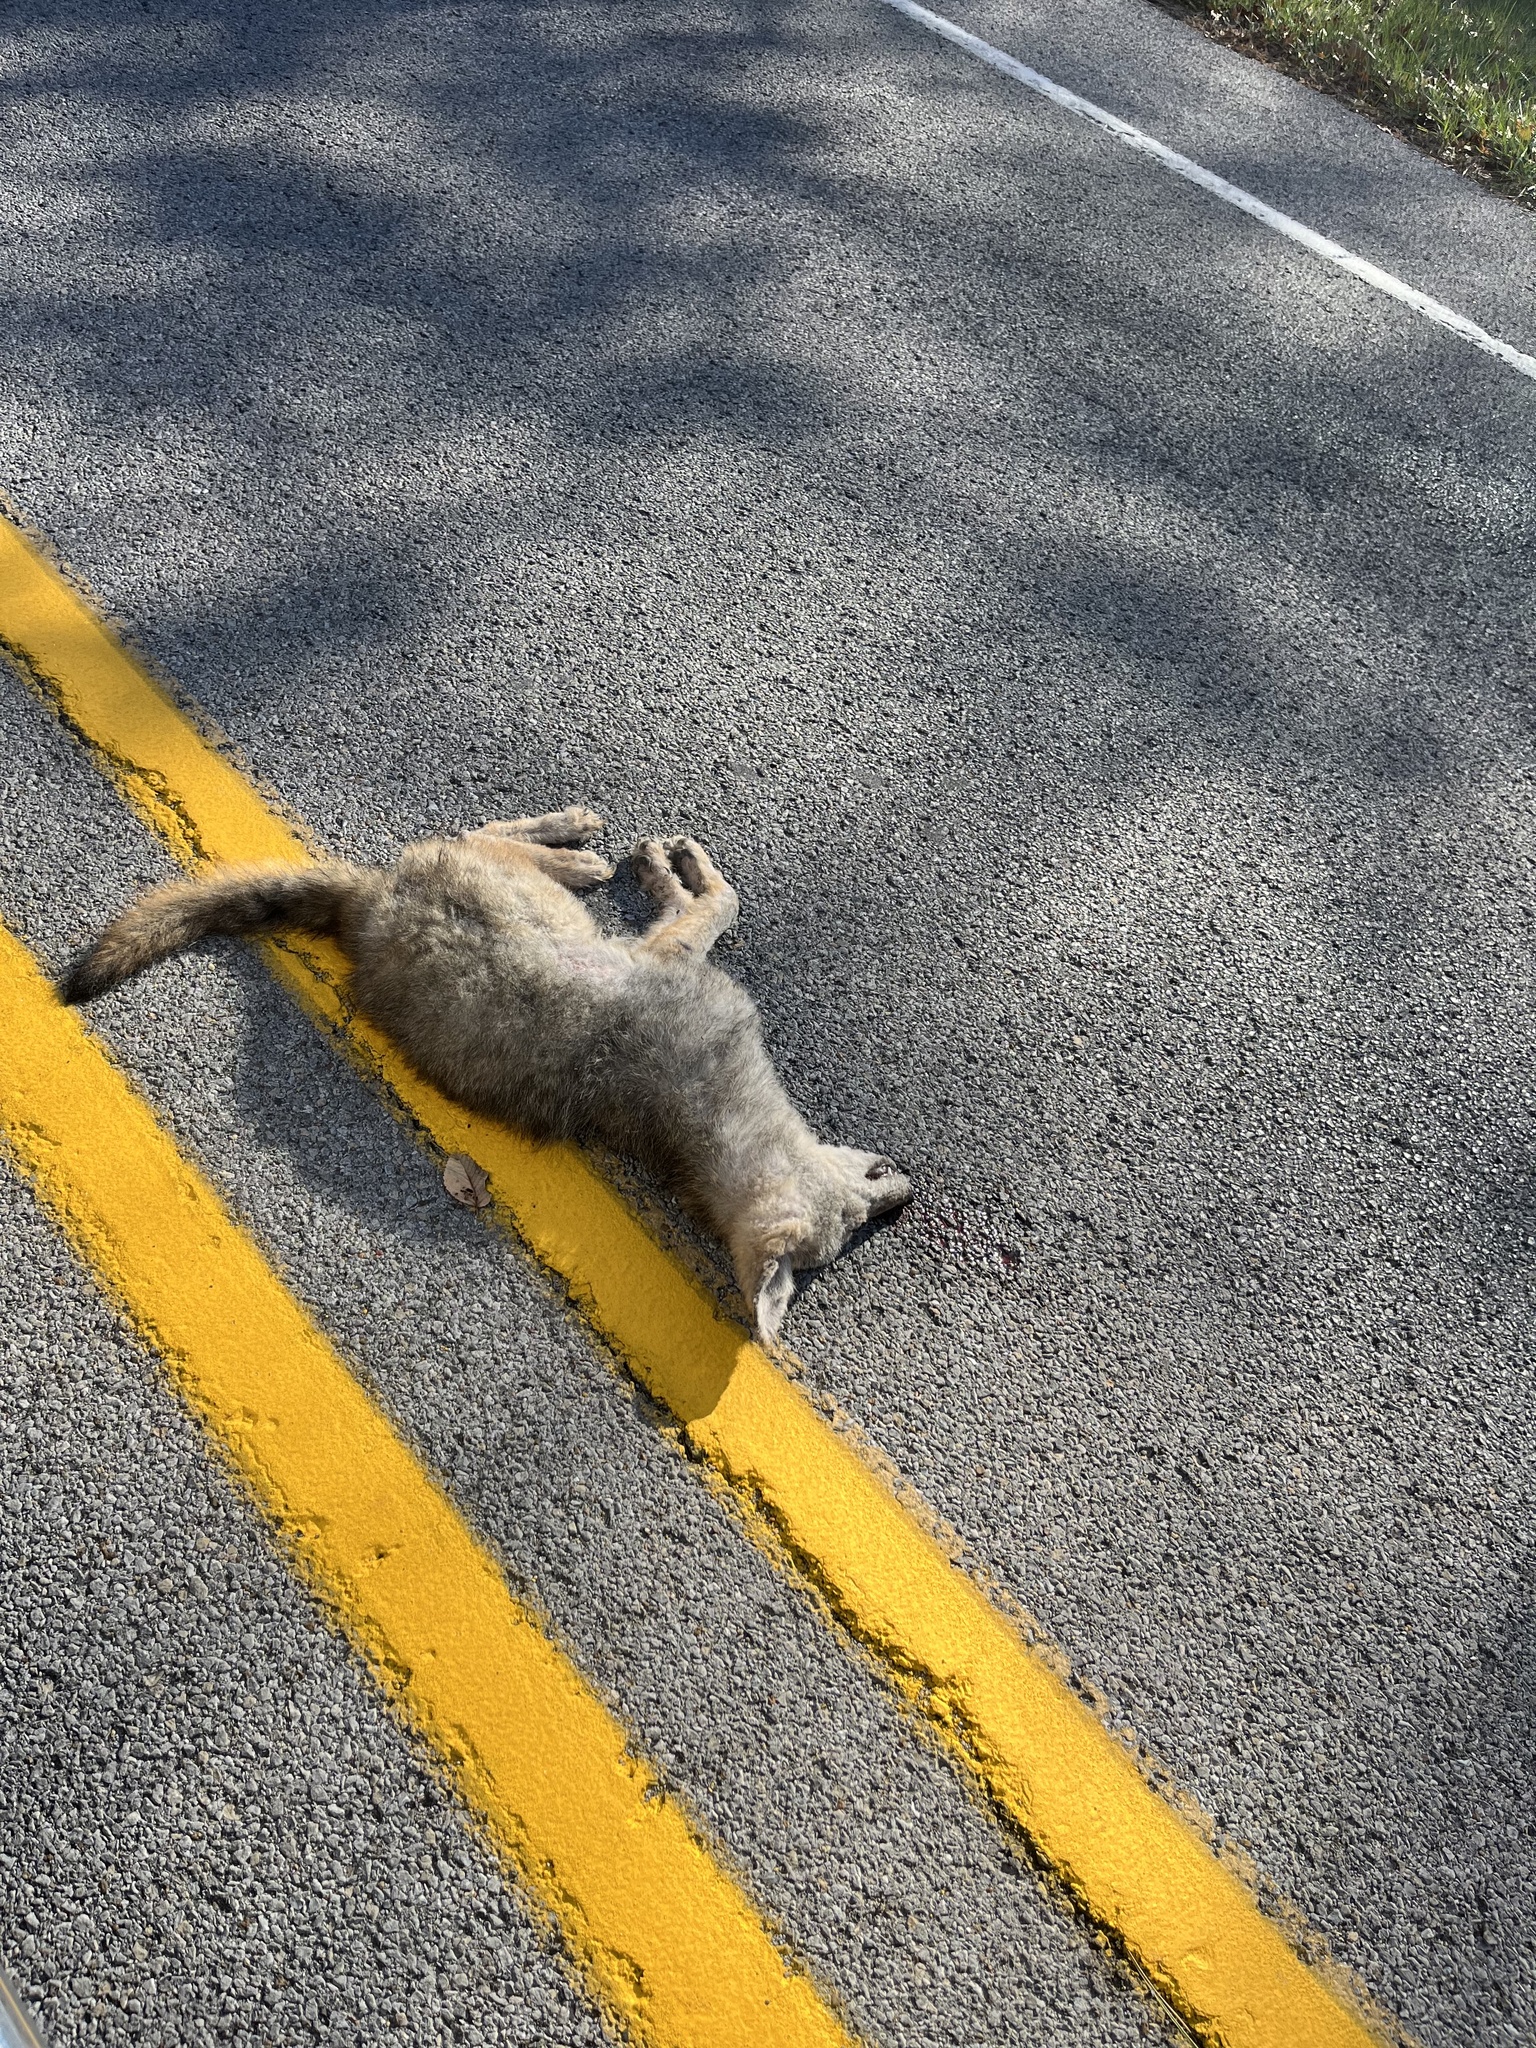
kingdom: Animalia
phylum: Chordata
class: Mammalia
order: Carnivora
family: Canidae
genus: Canis
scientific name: Canis latrans
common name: Coyote
